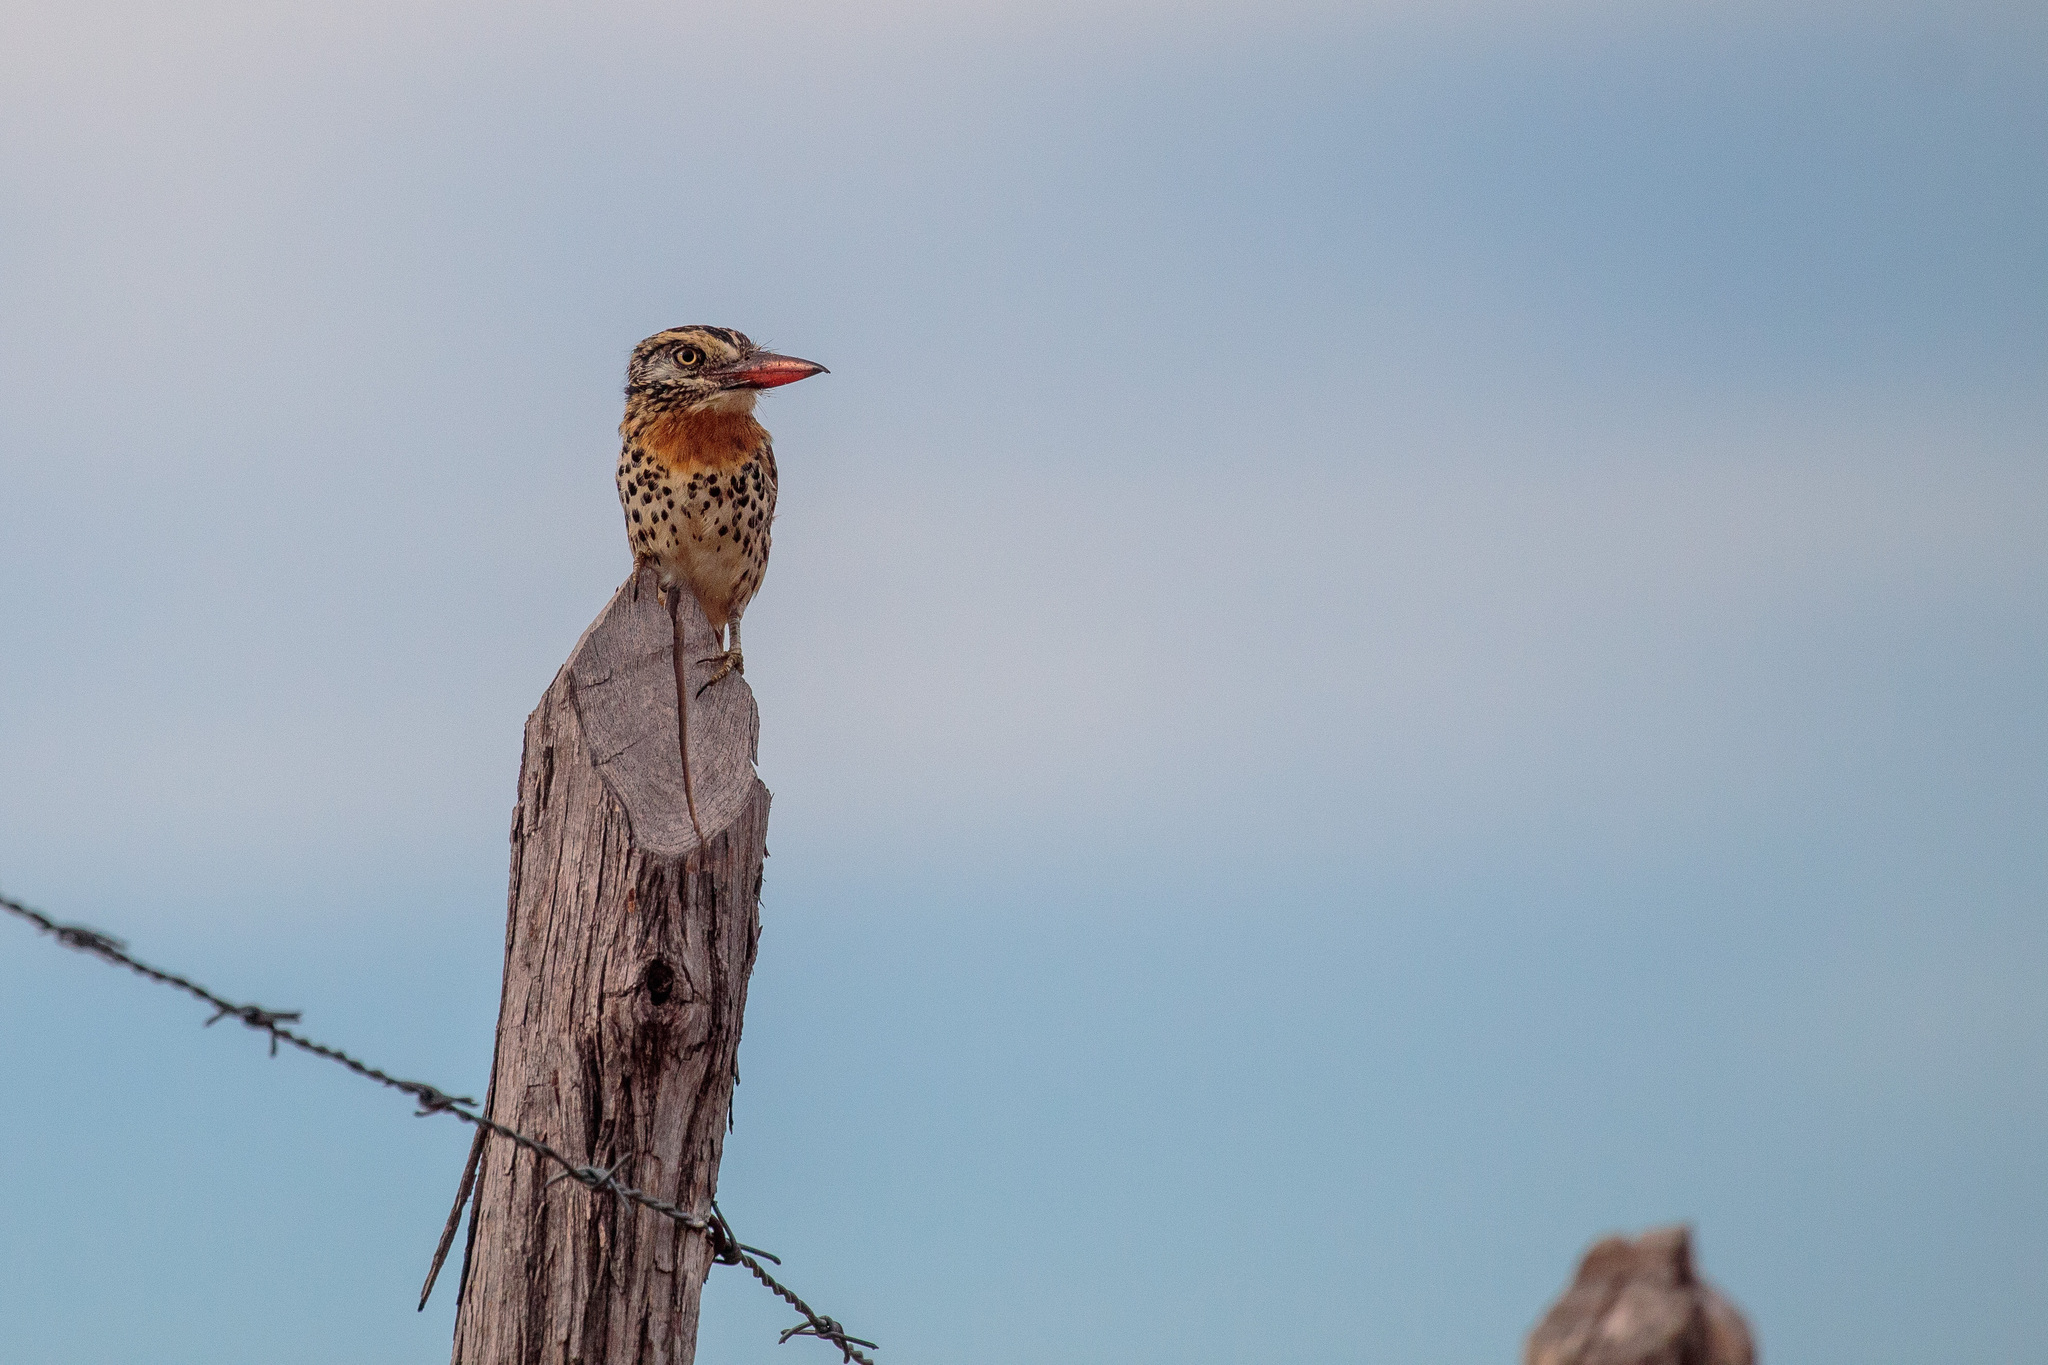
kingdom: Animalia
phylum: Chordata
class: Aves
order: Piciformes
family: Bucconidae
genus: Nystalus
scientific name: Nystalus maculatus
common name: Caatinga puffbird
